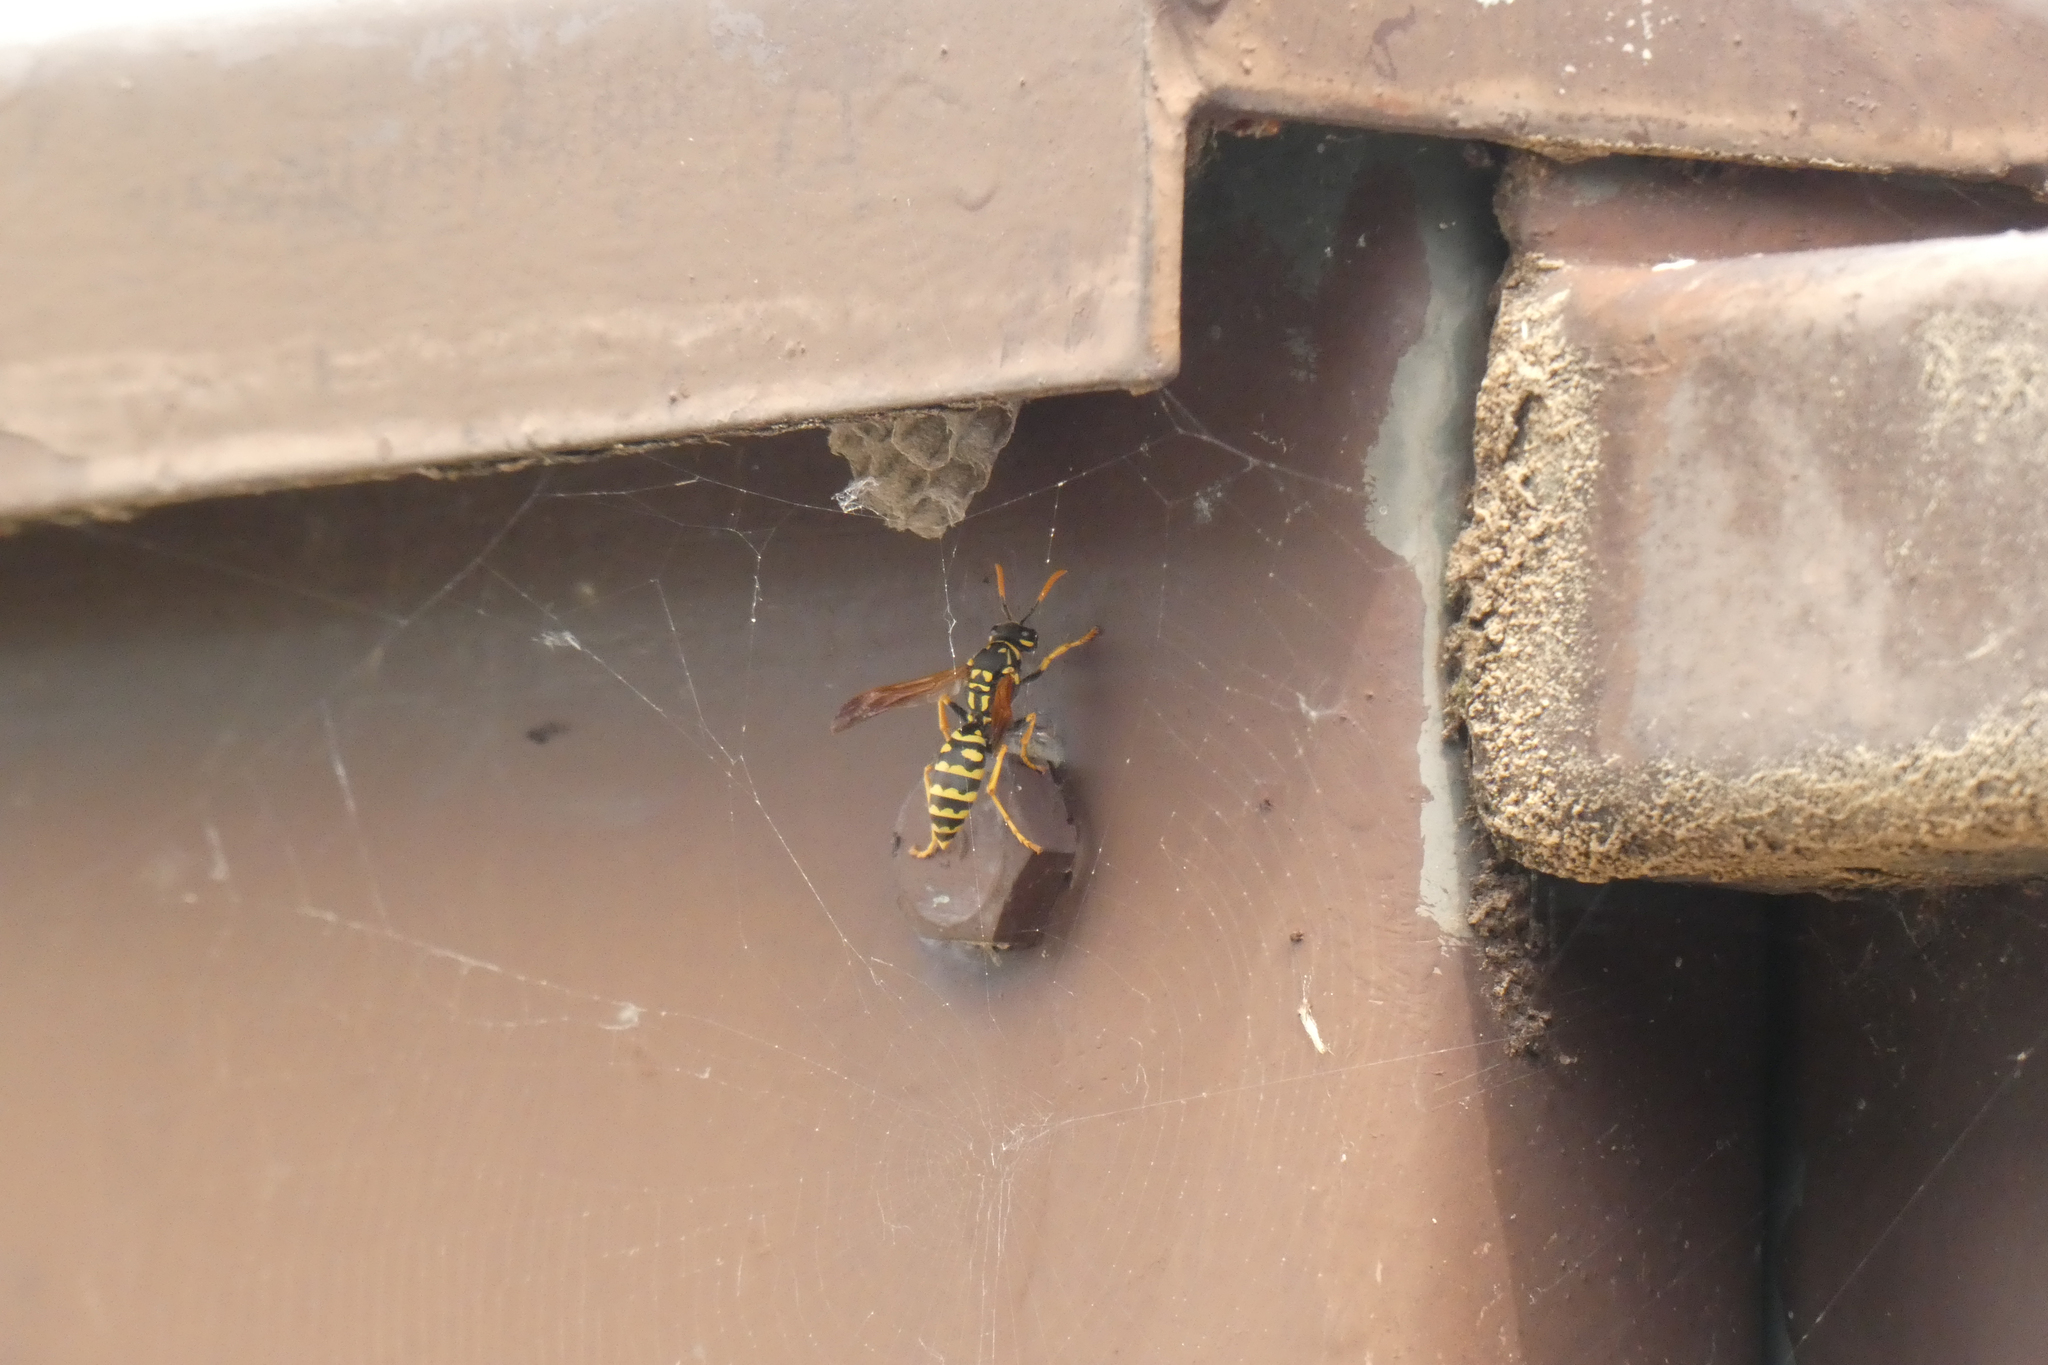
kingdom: Animalia
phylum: Arthropoda
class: Insecta
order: Hymenoptera
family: Eumenidae
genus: Polistes
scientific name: Polistes dominula
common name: Paper wasp
